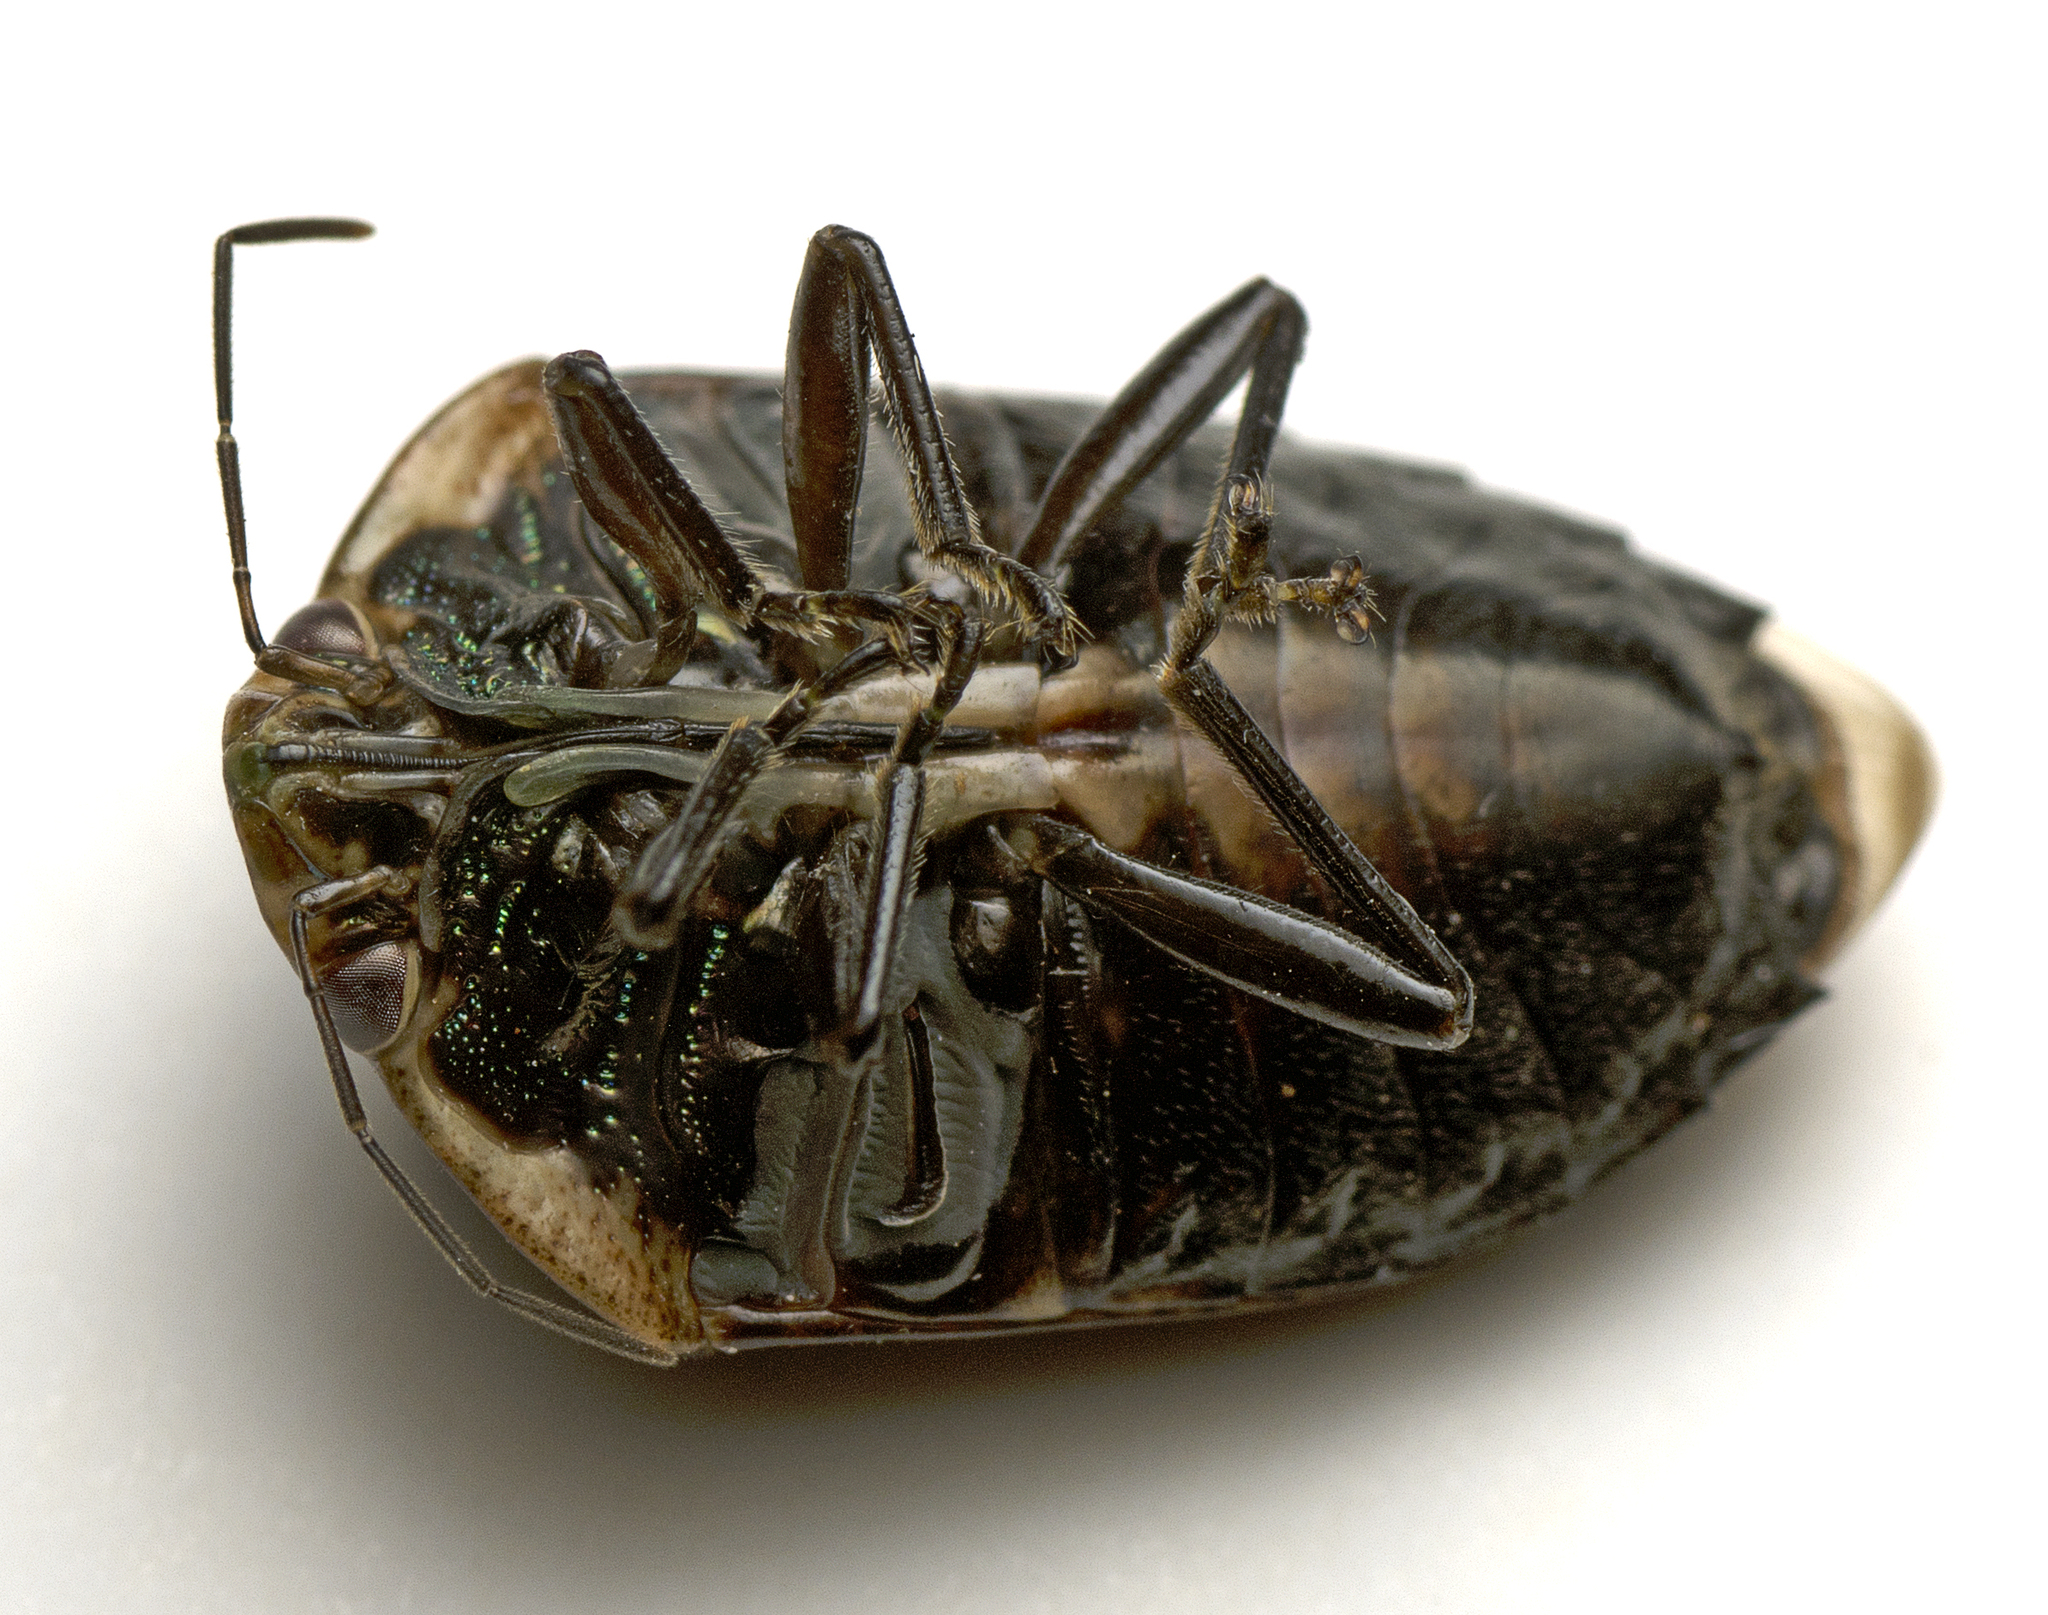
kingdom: Animalia
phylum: Arthropoda
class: Insecta
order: Hemiptera
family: Pentatomidae
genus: Coleotichus
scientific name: Coleotichus artensis
